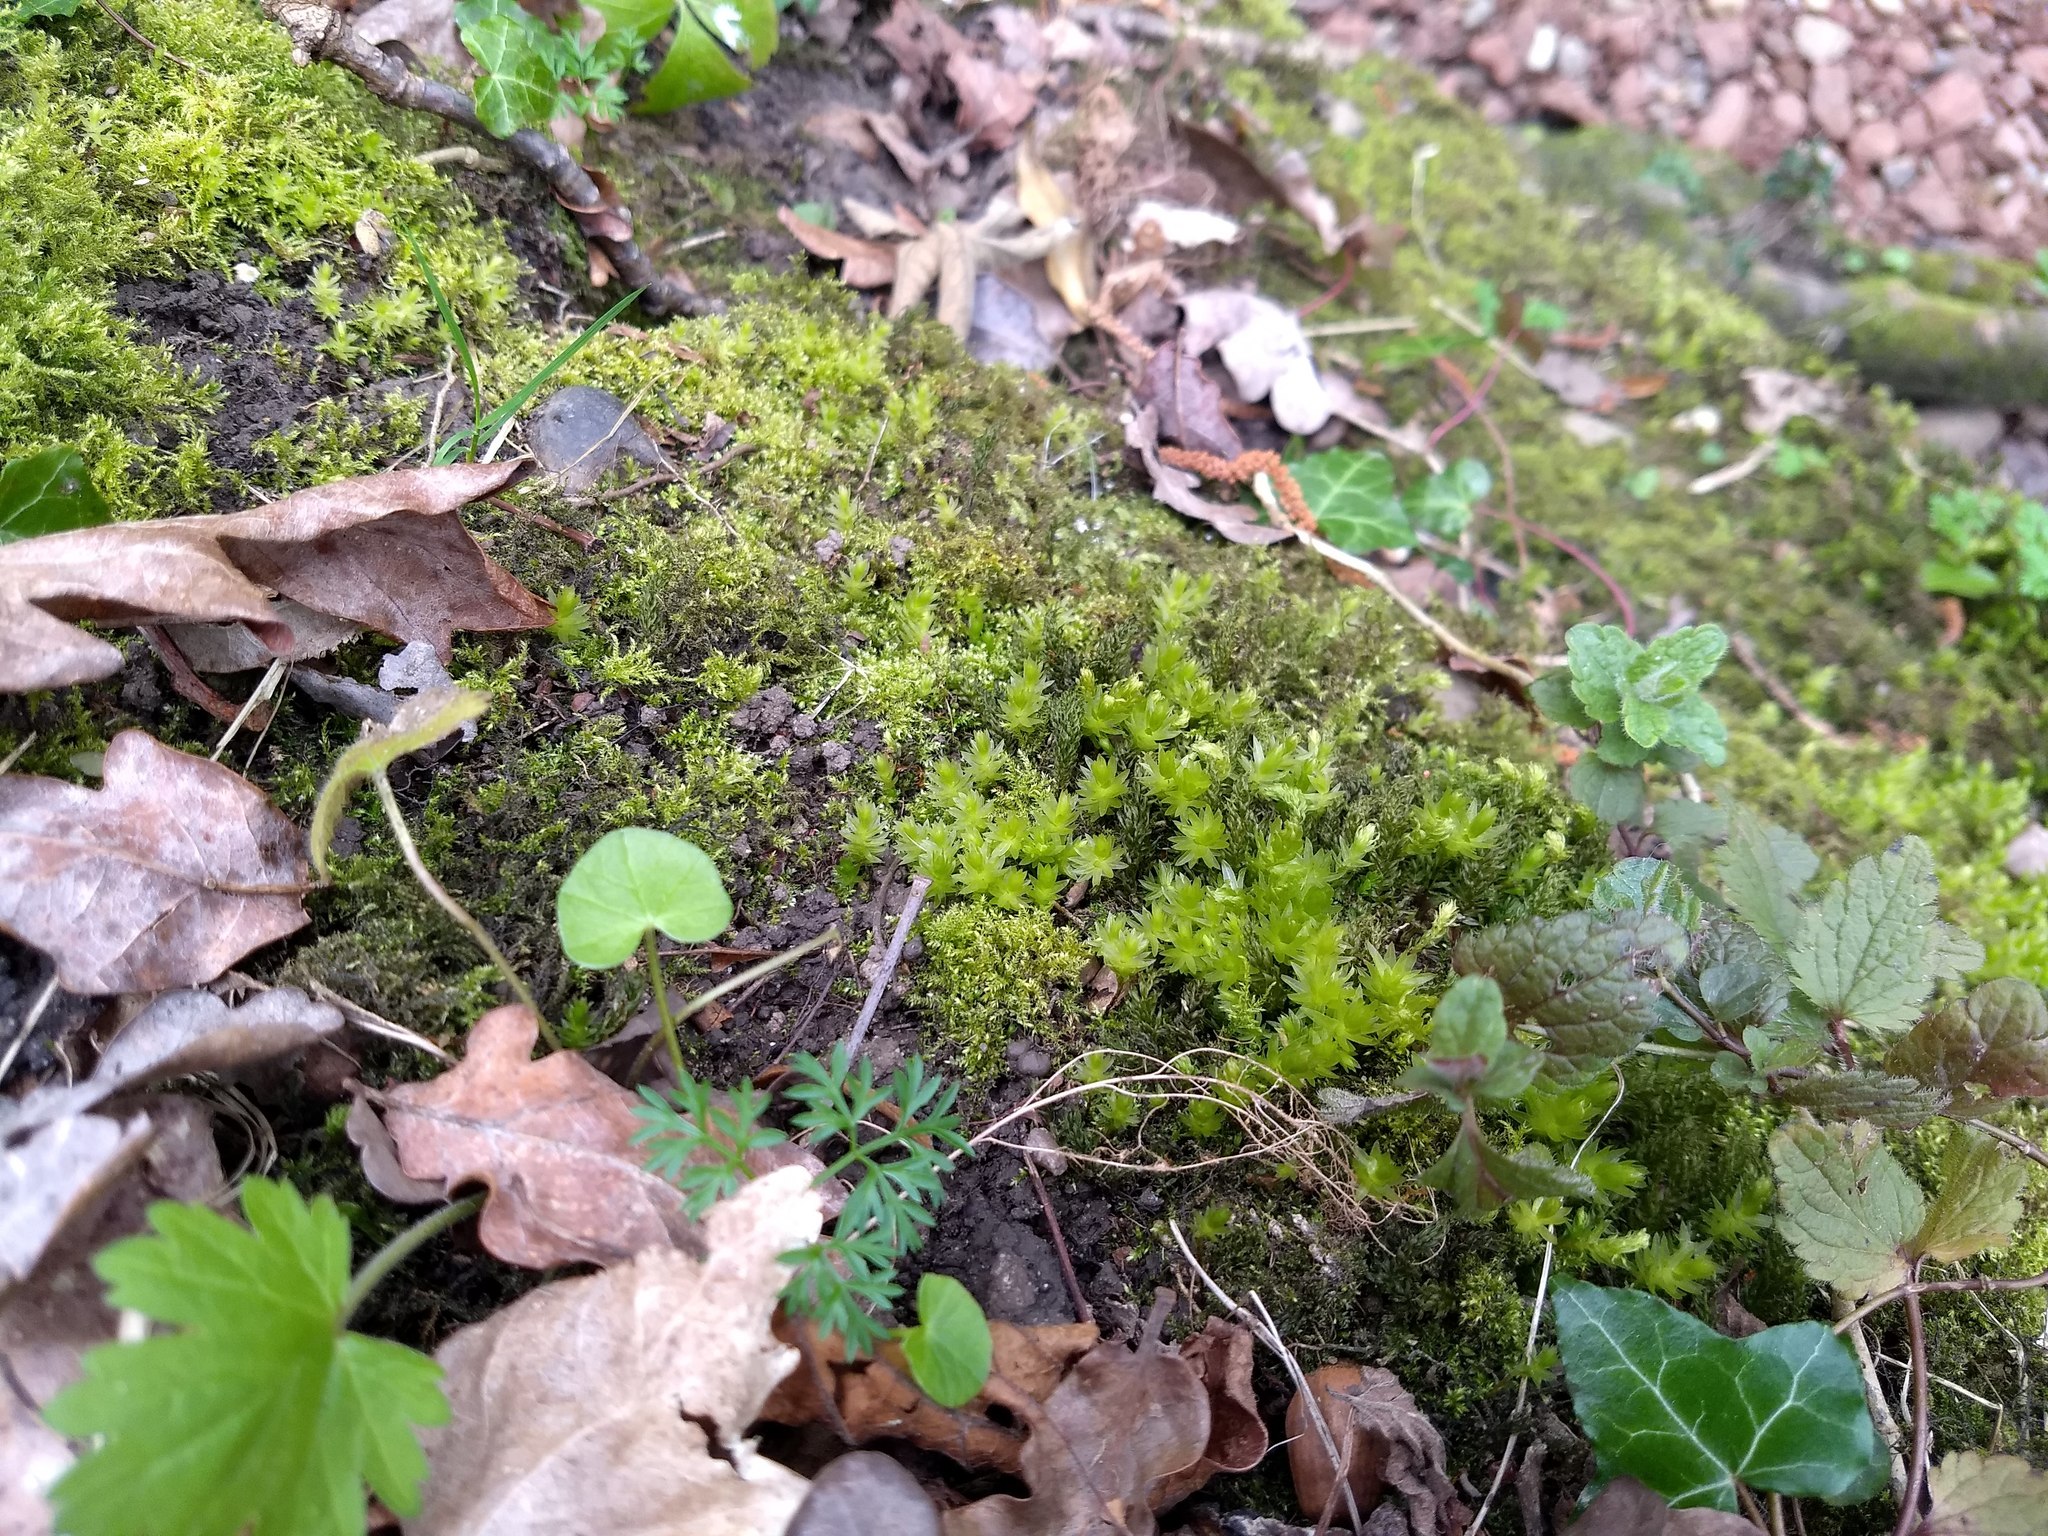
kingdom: Plantae
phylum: Tracheophyta
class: Magnoliopsida
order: Apiales
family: Apiaceae
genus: Conopodium
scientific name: Conopodium majus
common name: Pignut
